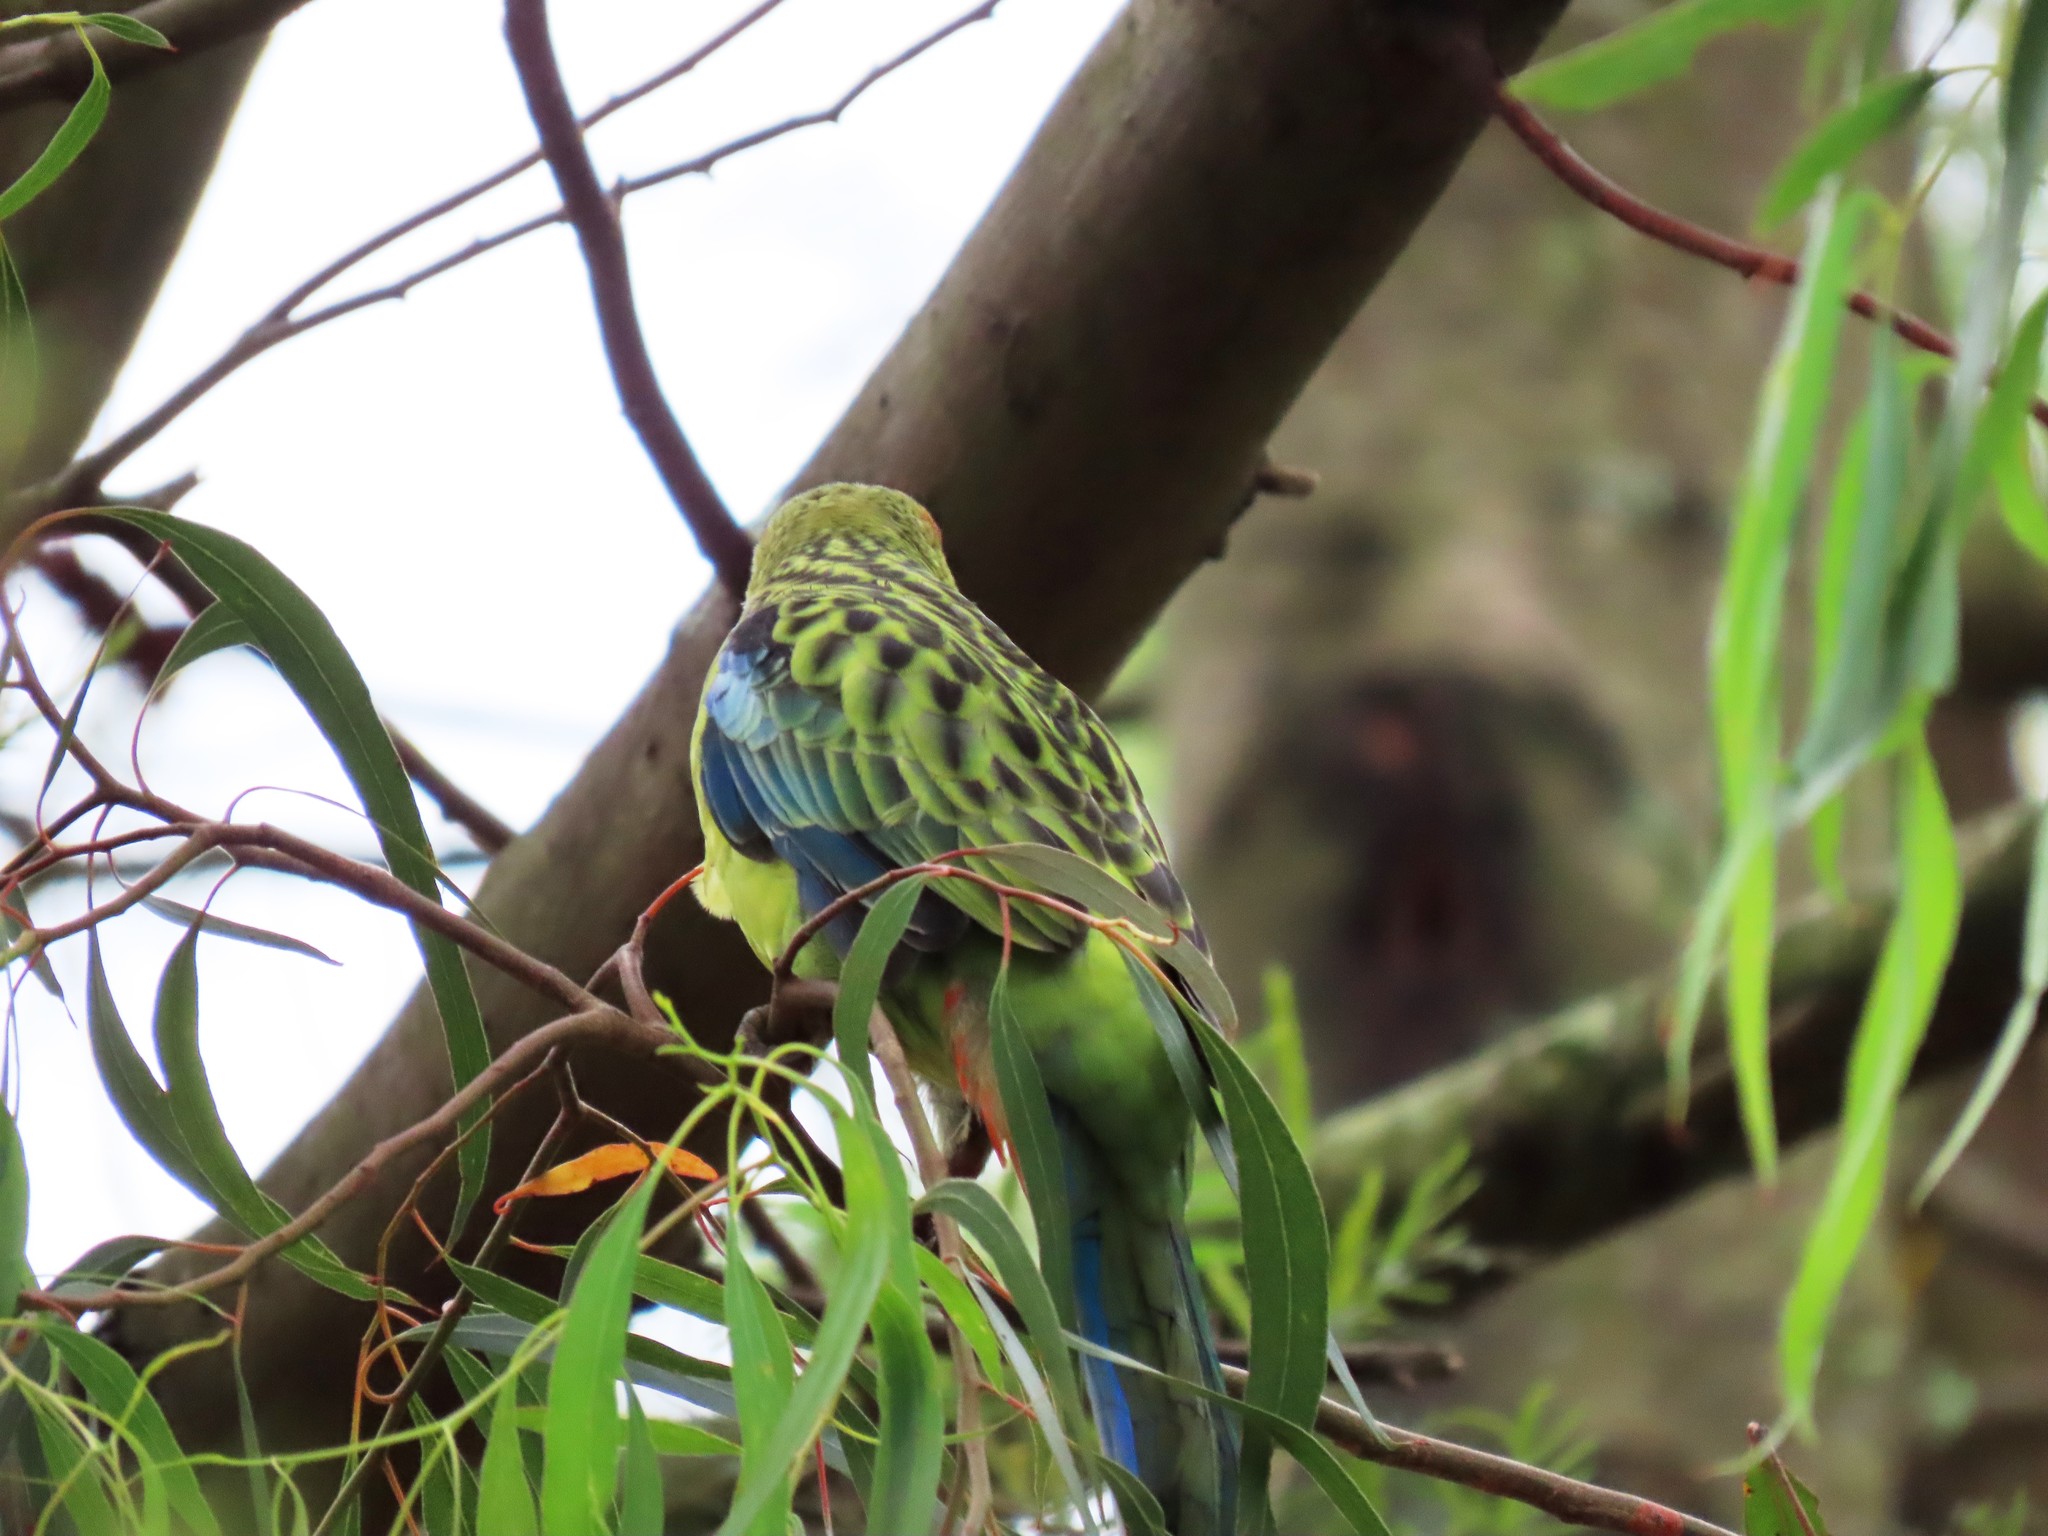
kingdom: Animalia
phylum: Chordata
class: Aves
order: Psittaciformes
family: Psittacidae
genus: Platycercus
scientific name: Platycercus eximius
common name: Eastern rosella
